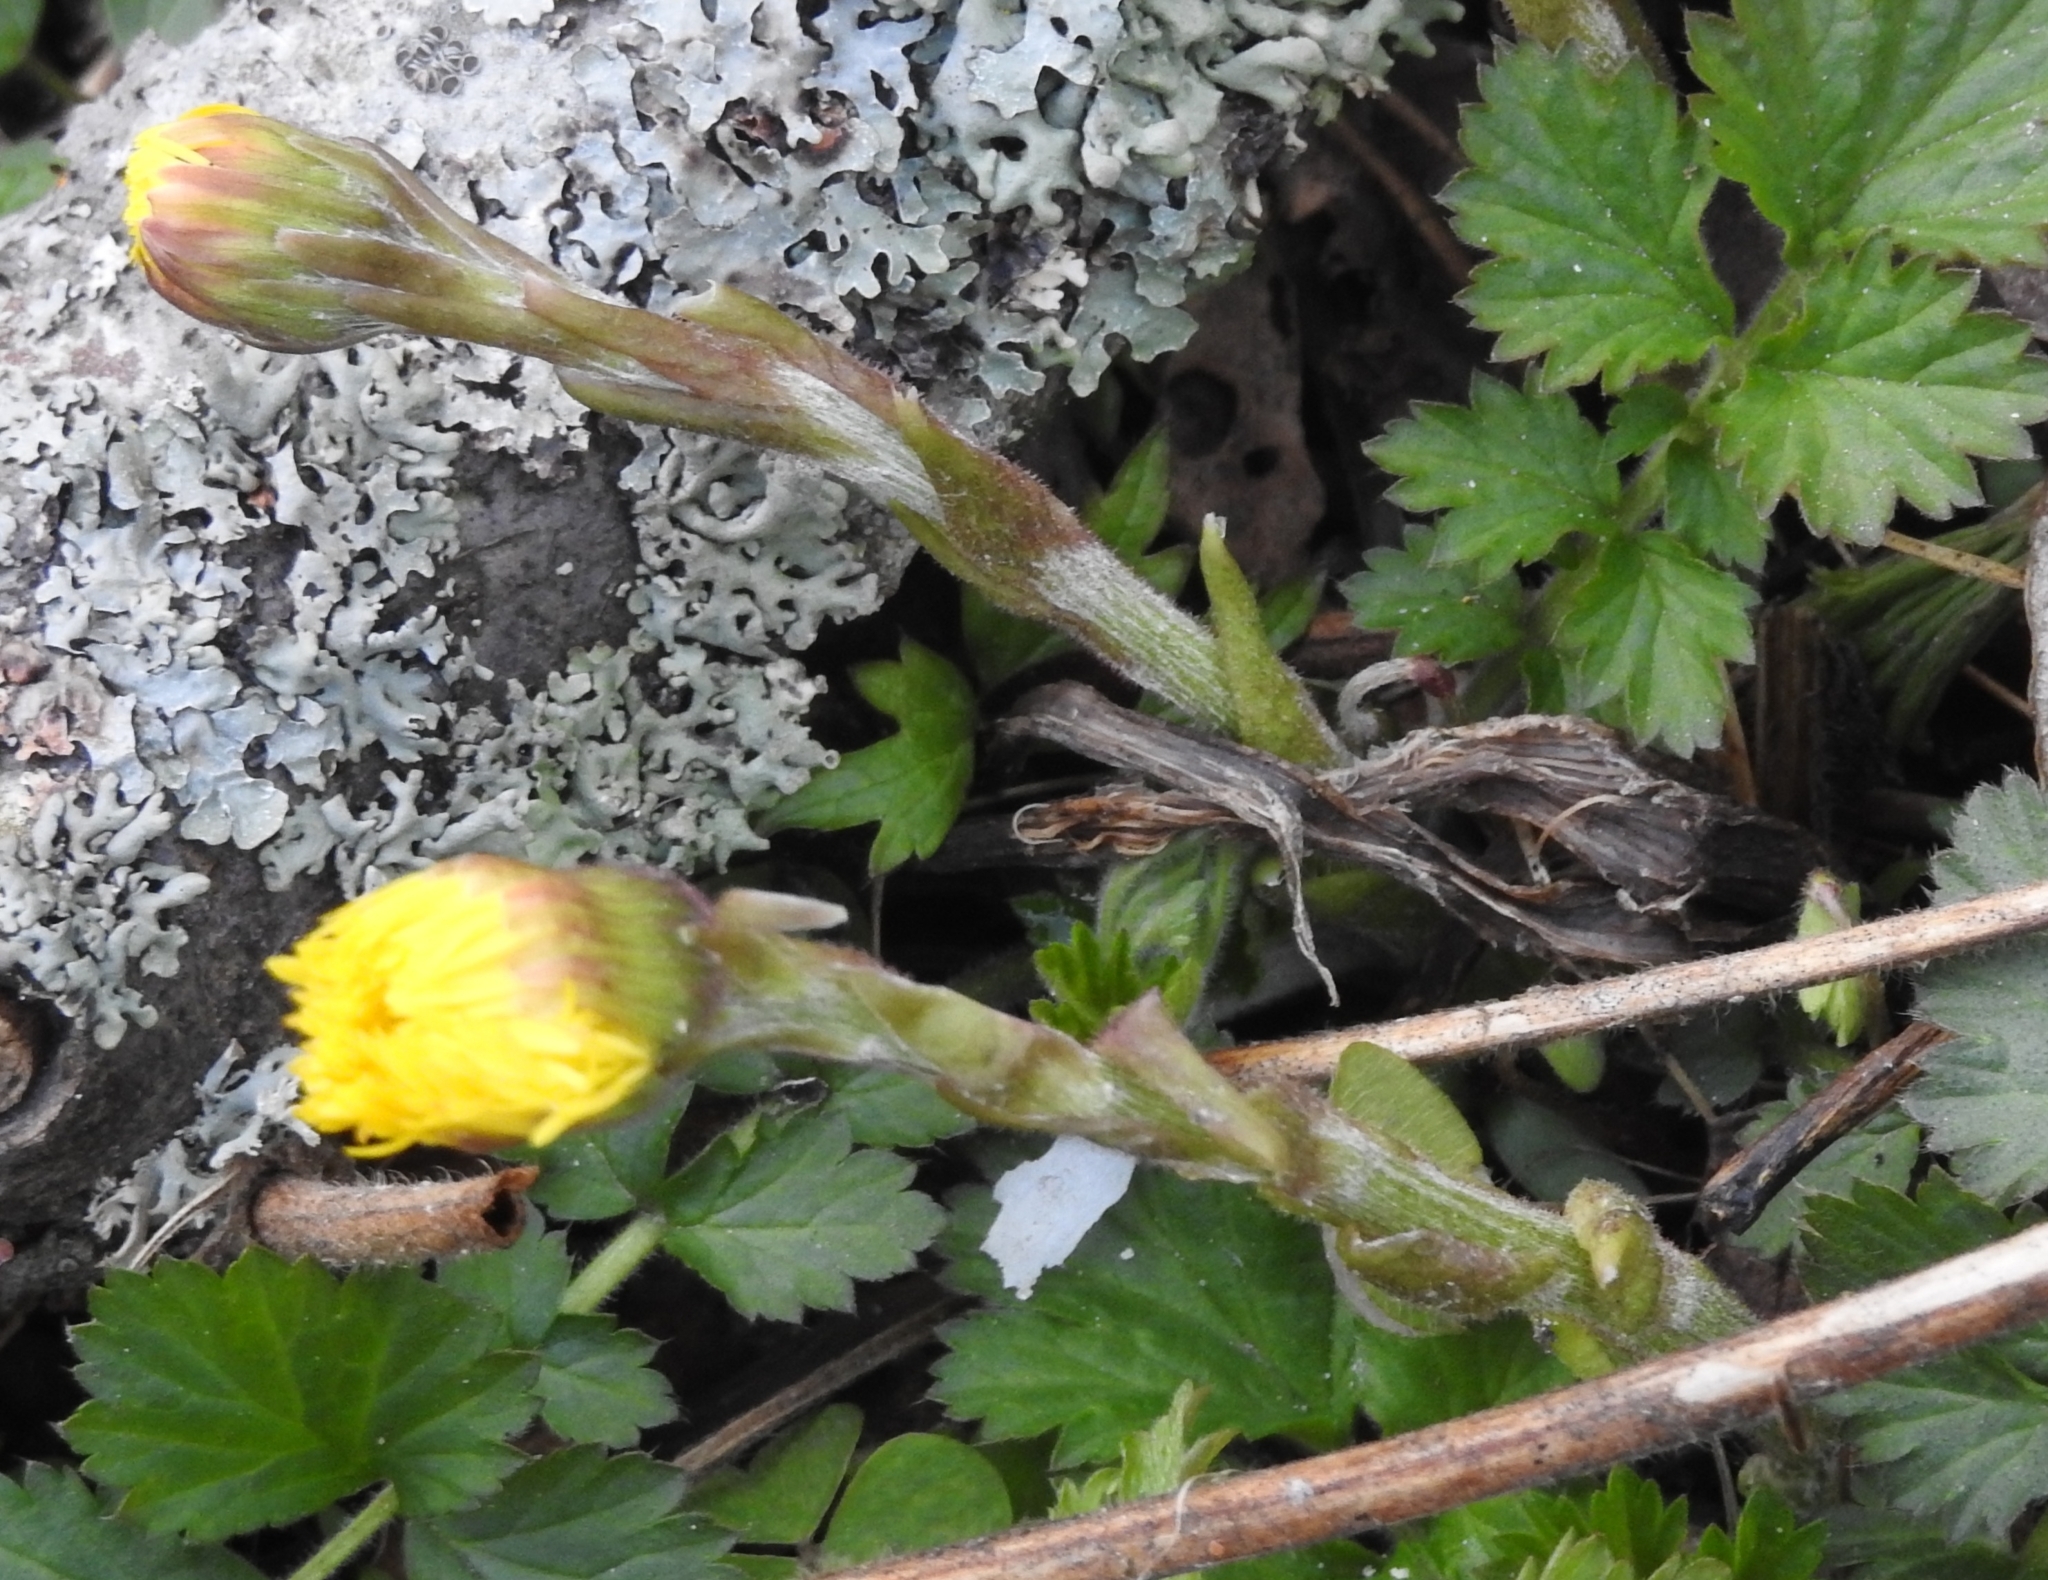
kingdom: Plantae
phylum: Tracheophyta
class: Magnoliopsida
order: Asterales
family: Asteraceae
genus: Tussilago
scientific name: Tussilago farfara
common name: Coltsfoot
